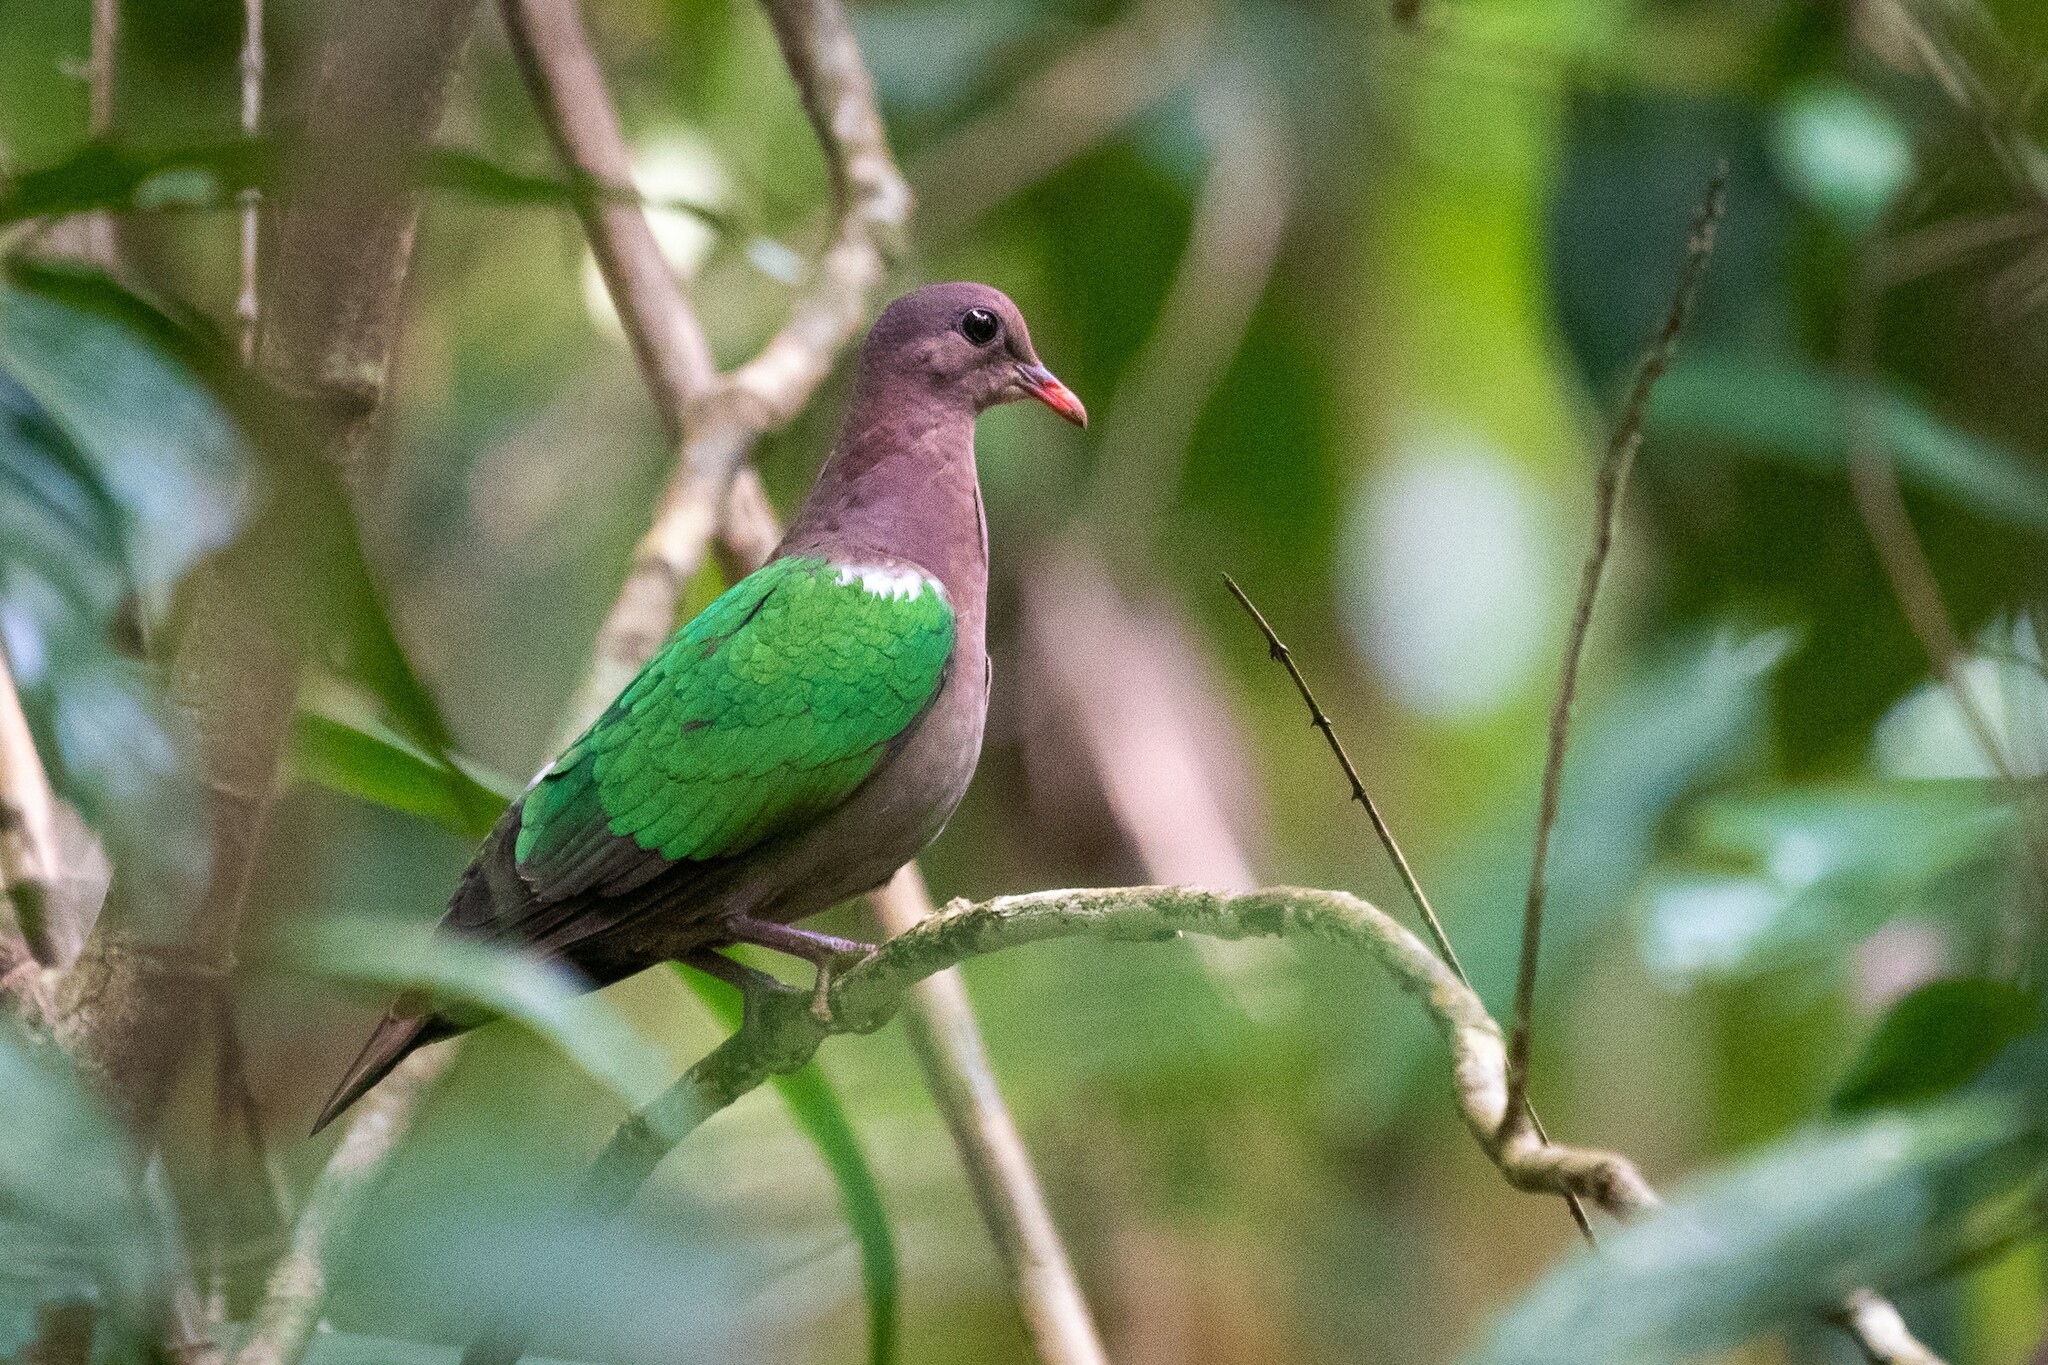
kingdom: Animalia
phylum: Chordata
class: Aves
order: Columbiformes
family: Columbidae
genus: Chalcophaps
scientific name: Chalcophaps longirostris
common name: Pacific emerald dove
